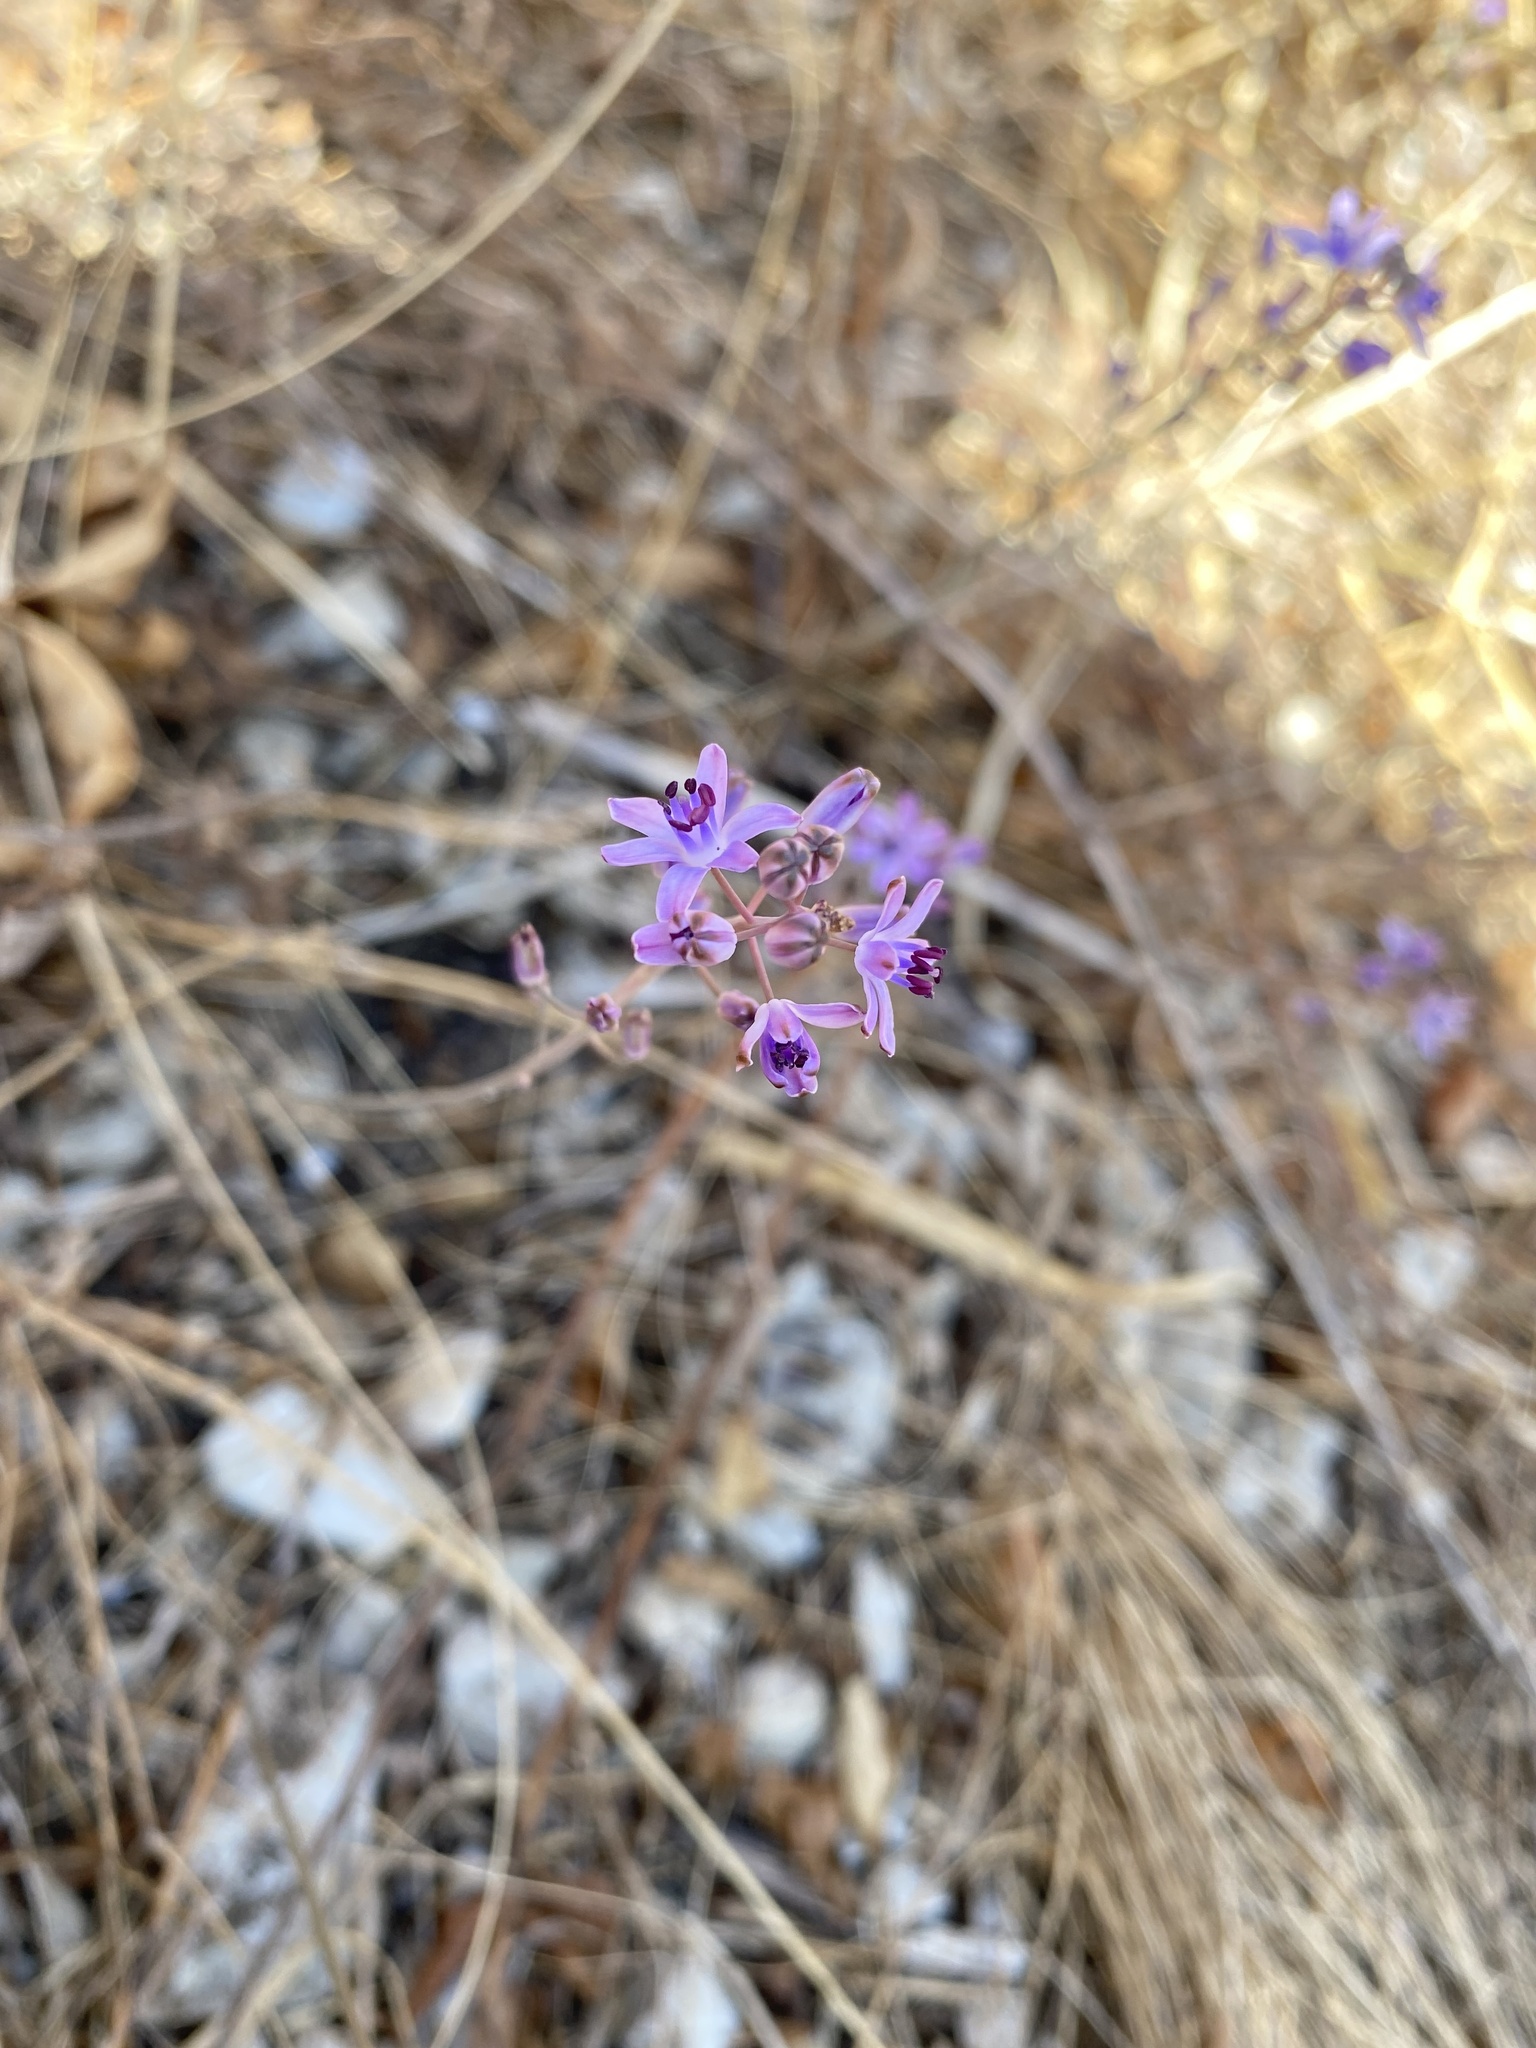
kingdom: Plantae
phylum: Tracheophyta
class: Liliopsida
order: Asparagales
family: Asparagaceae
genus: Prospero
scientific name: Prospero autumnale
